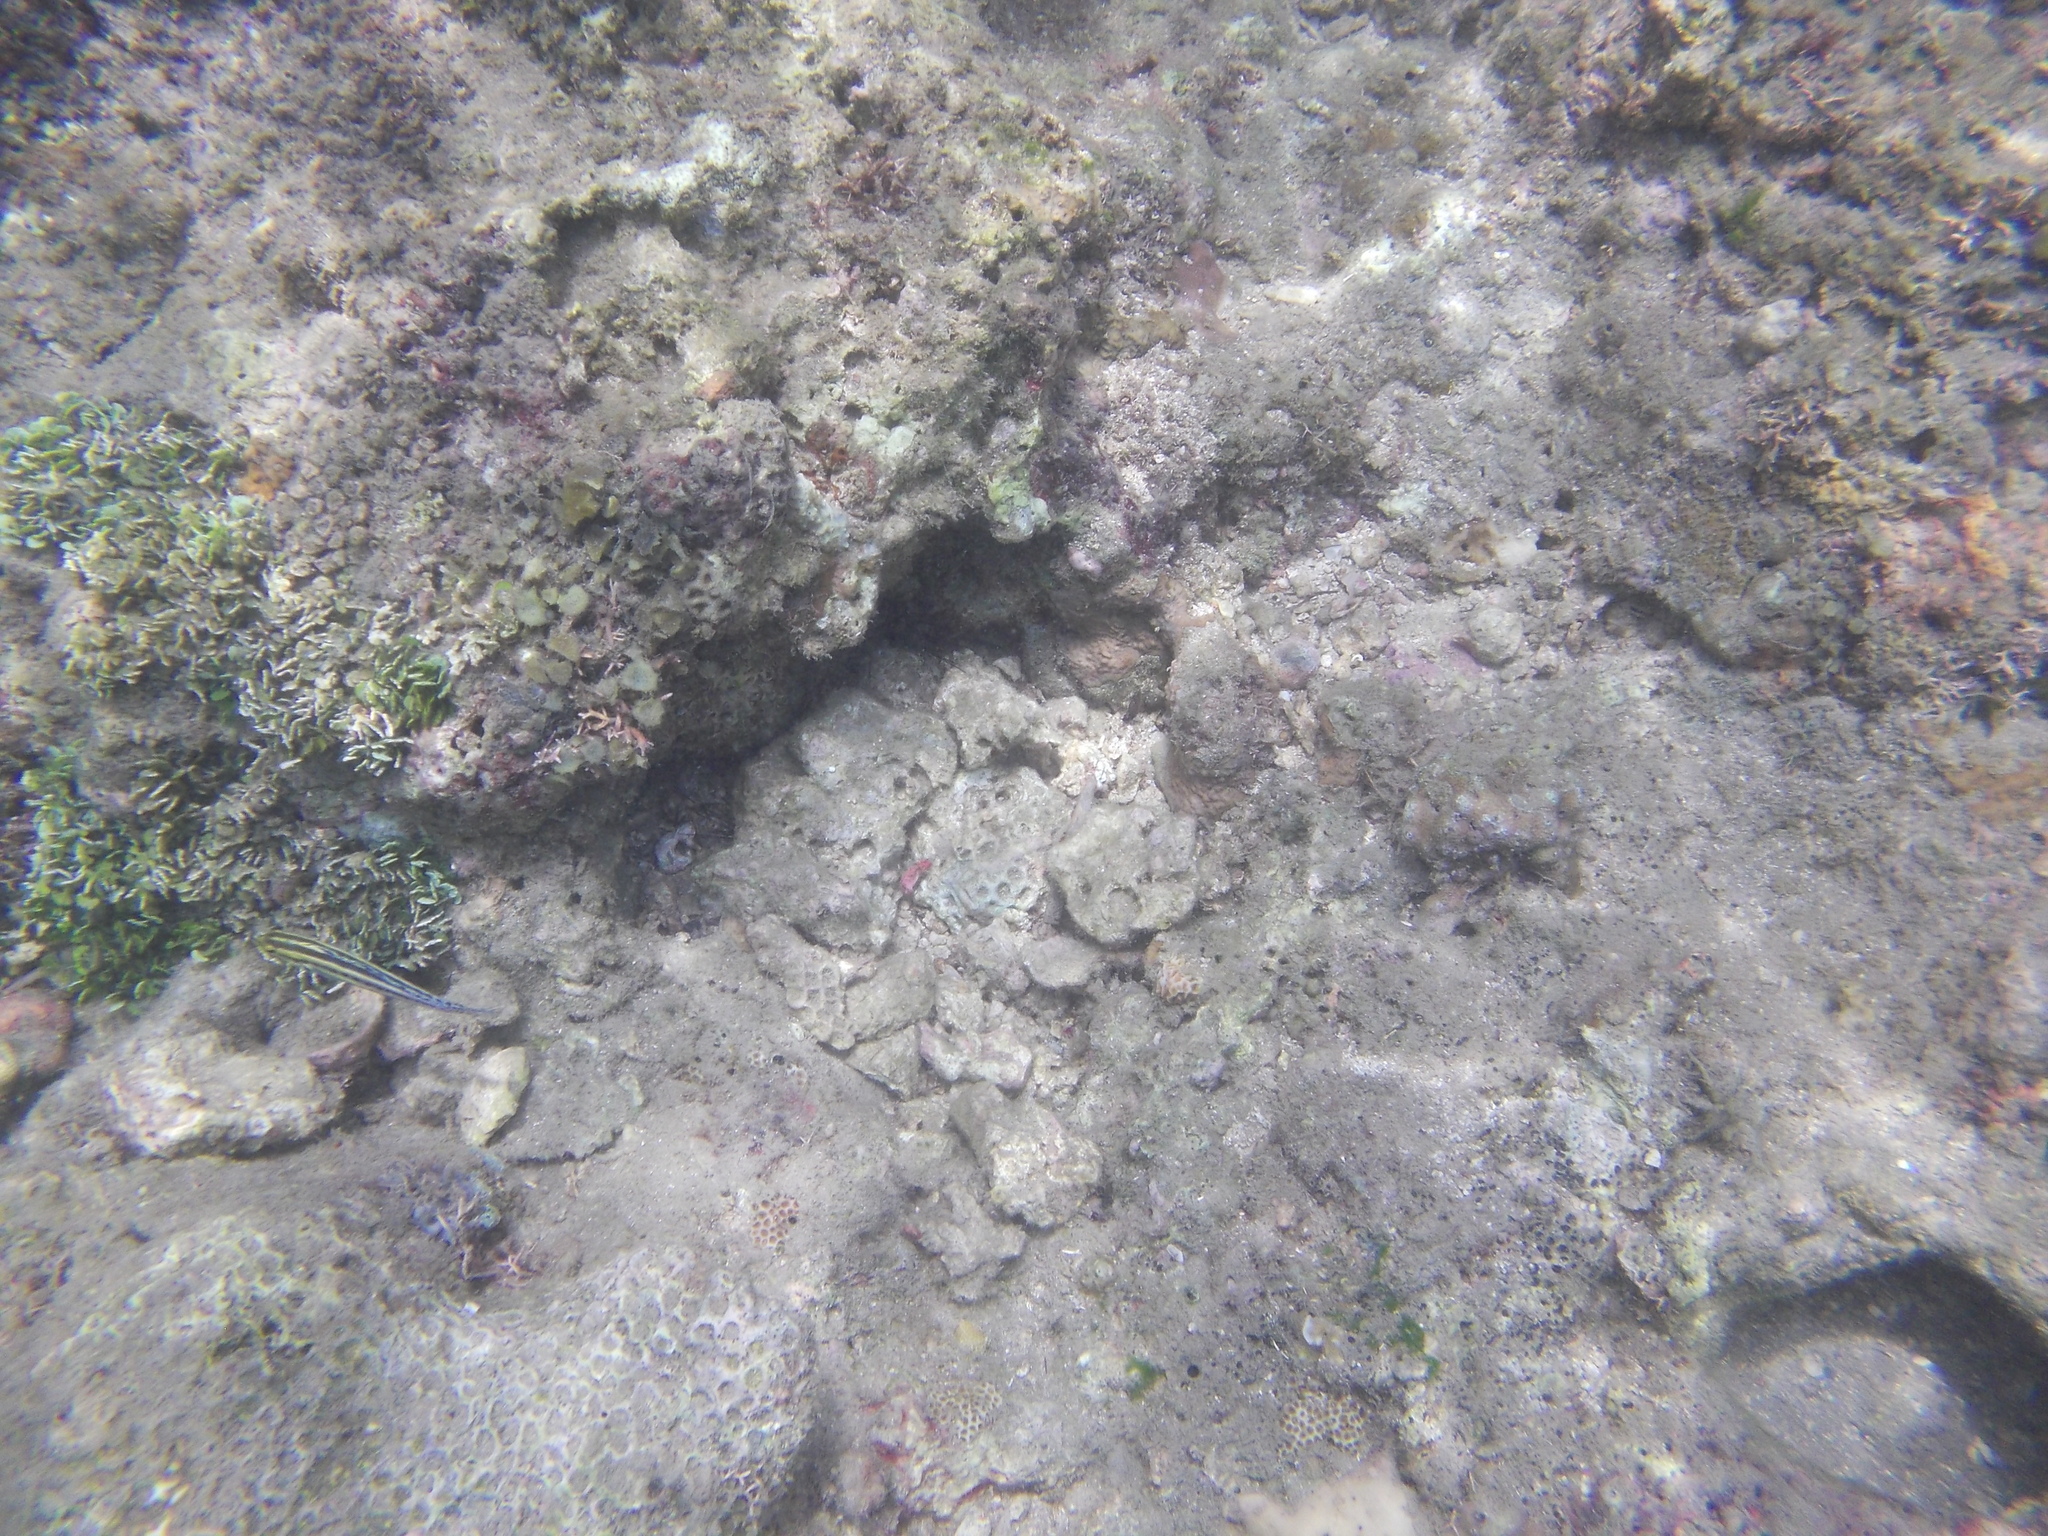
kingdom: Animalia
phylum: Chordata
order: Perciformes
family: Blenniidae
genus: Meiacanthus
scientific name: Meiacanthus grammistes
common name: Grammistes blenny
